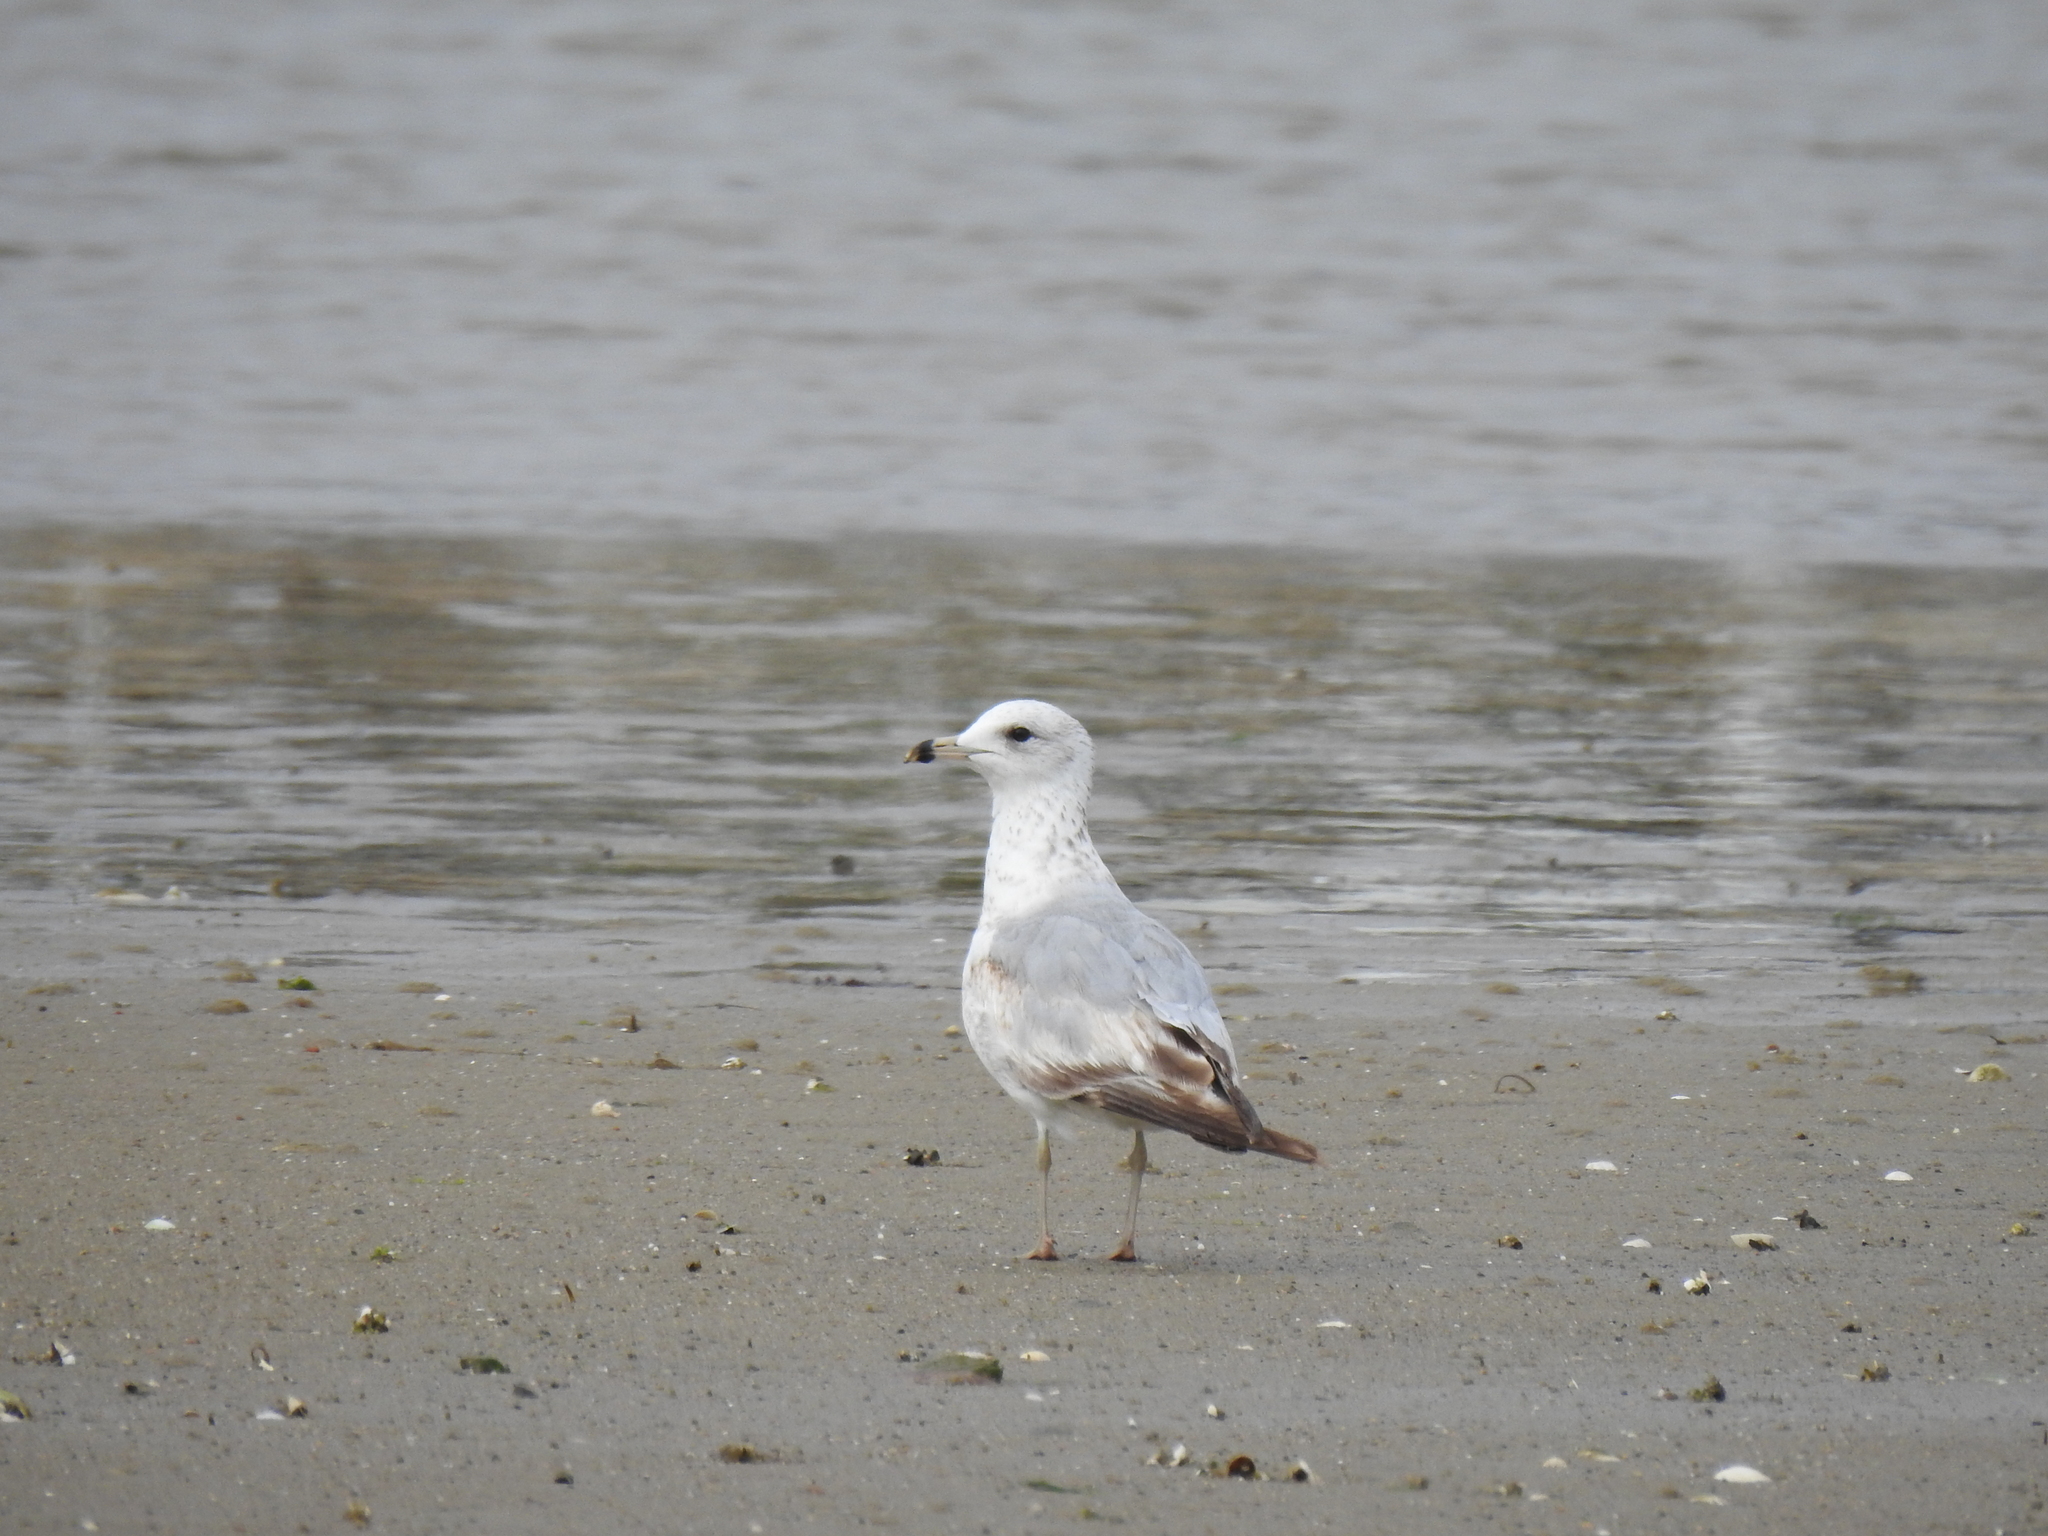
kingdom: Animalia
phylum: Chordata
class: Aves
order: Charadriiformes
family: Laridae
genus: Larus
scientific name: Larus delawarensis
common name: Ring-billed gull
